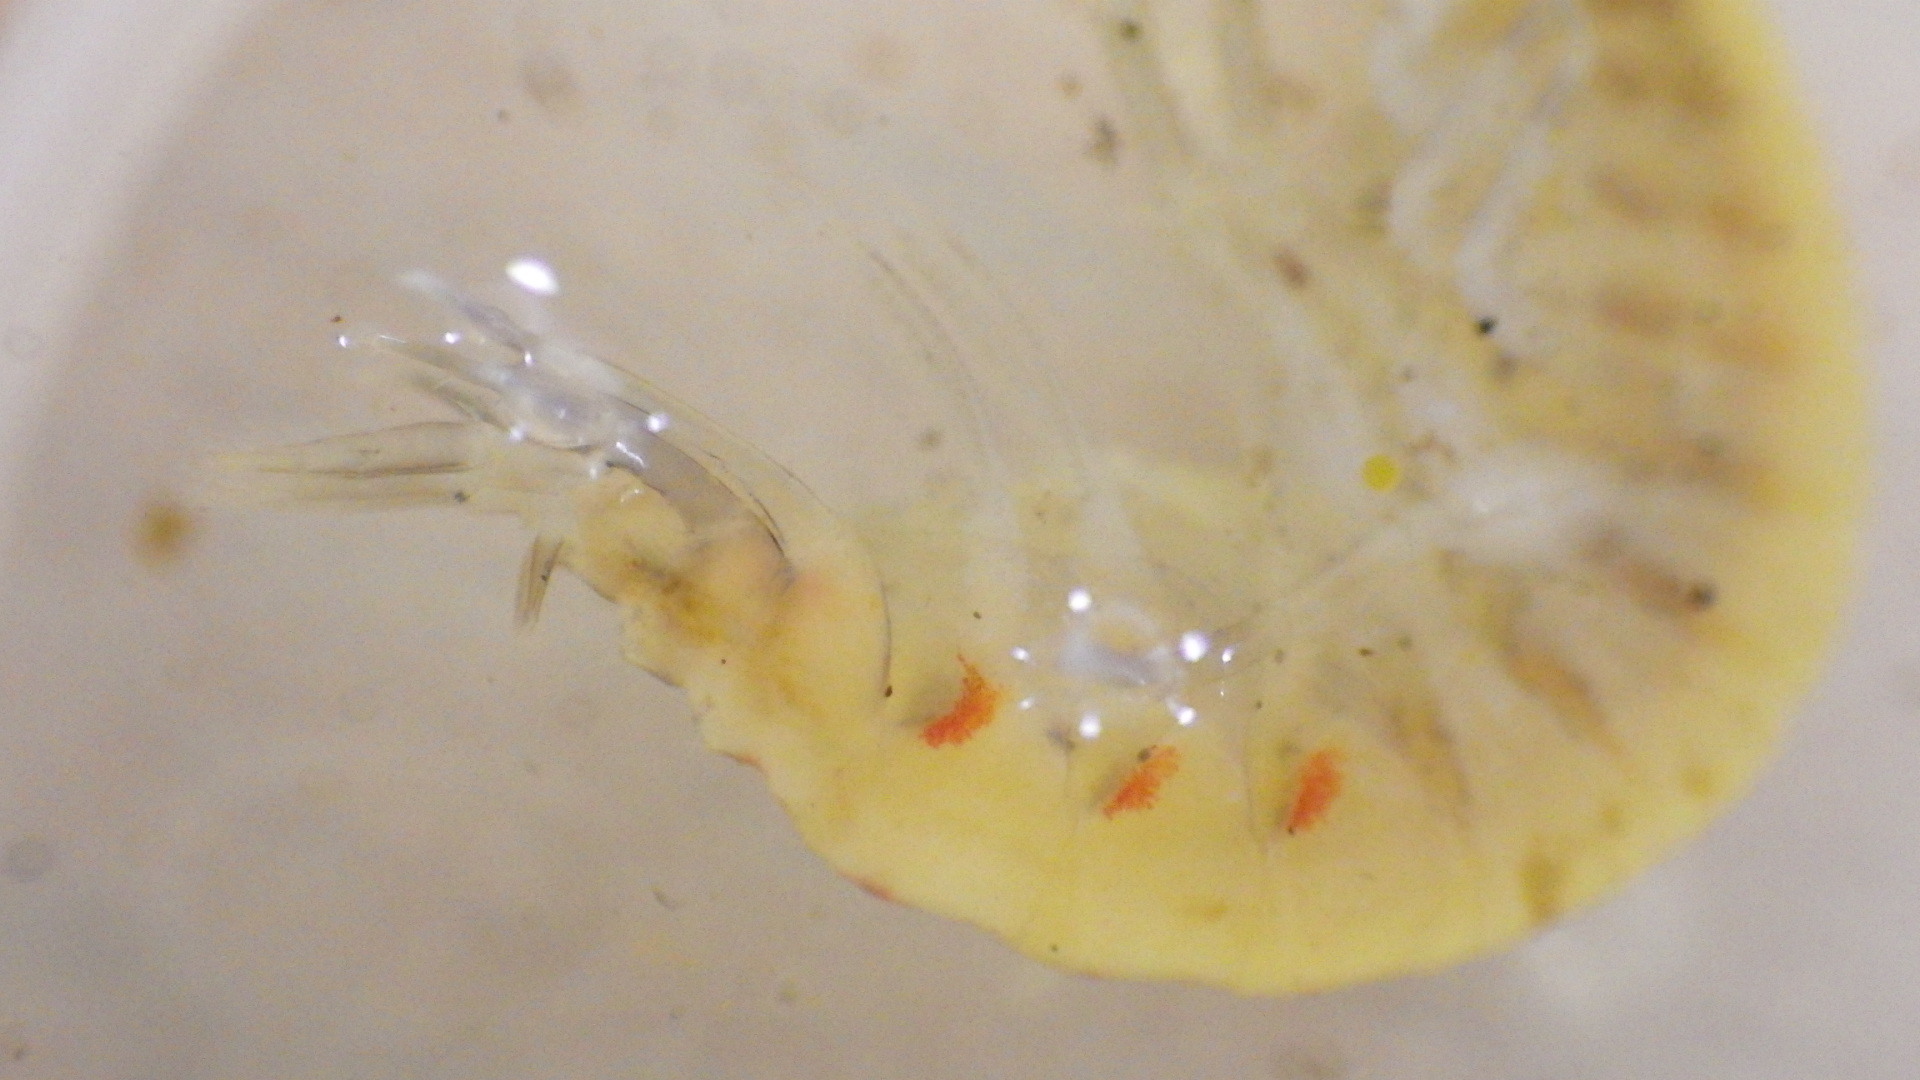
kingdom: Animalia
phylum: Arthropoda
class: Malacostraca
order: Amphipoda
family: Gammaridae
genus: Gammarus
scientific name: Gammarus fasciatus
